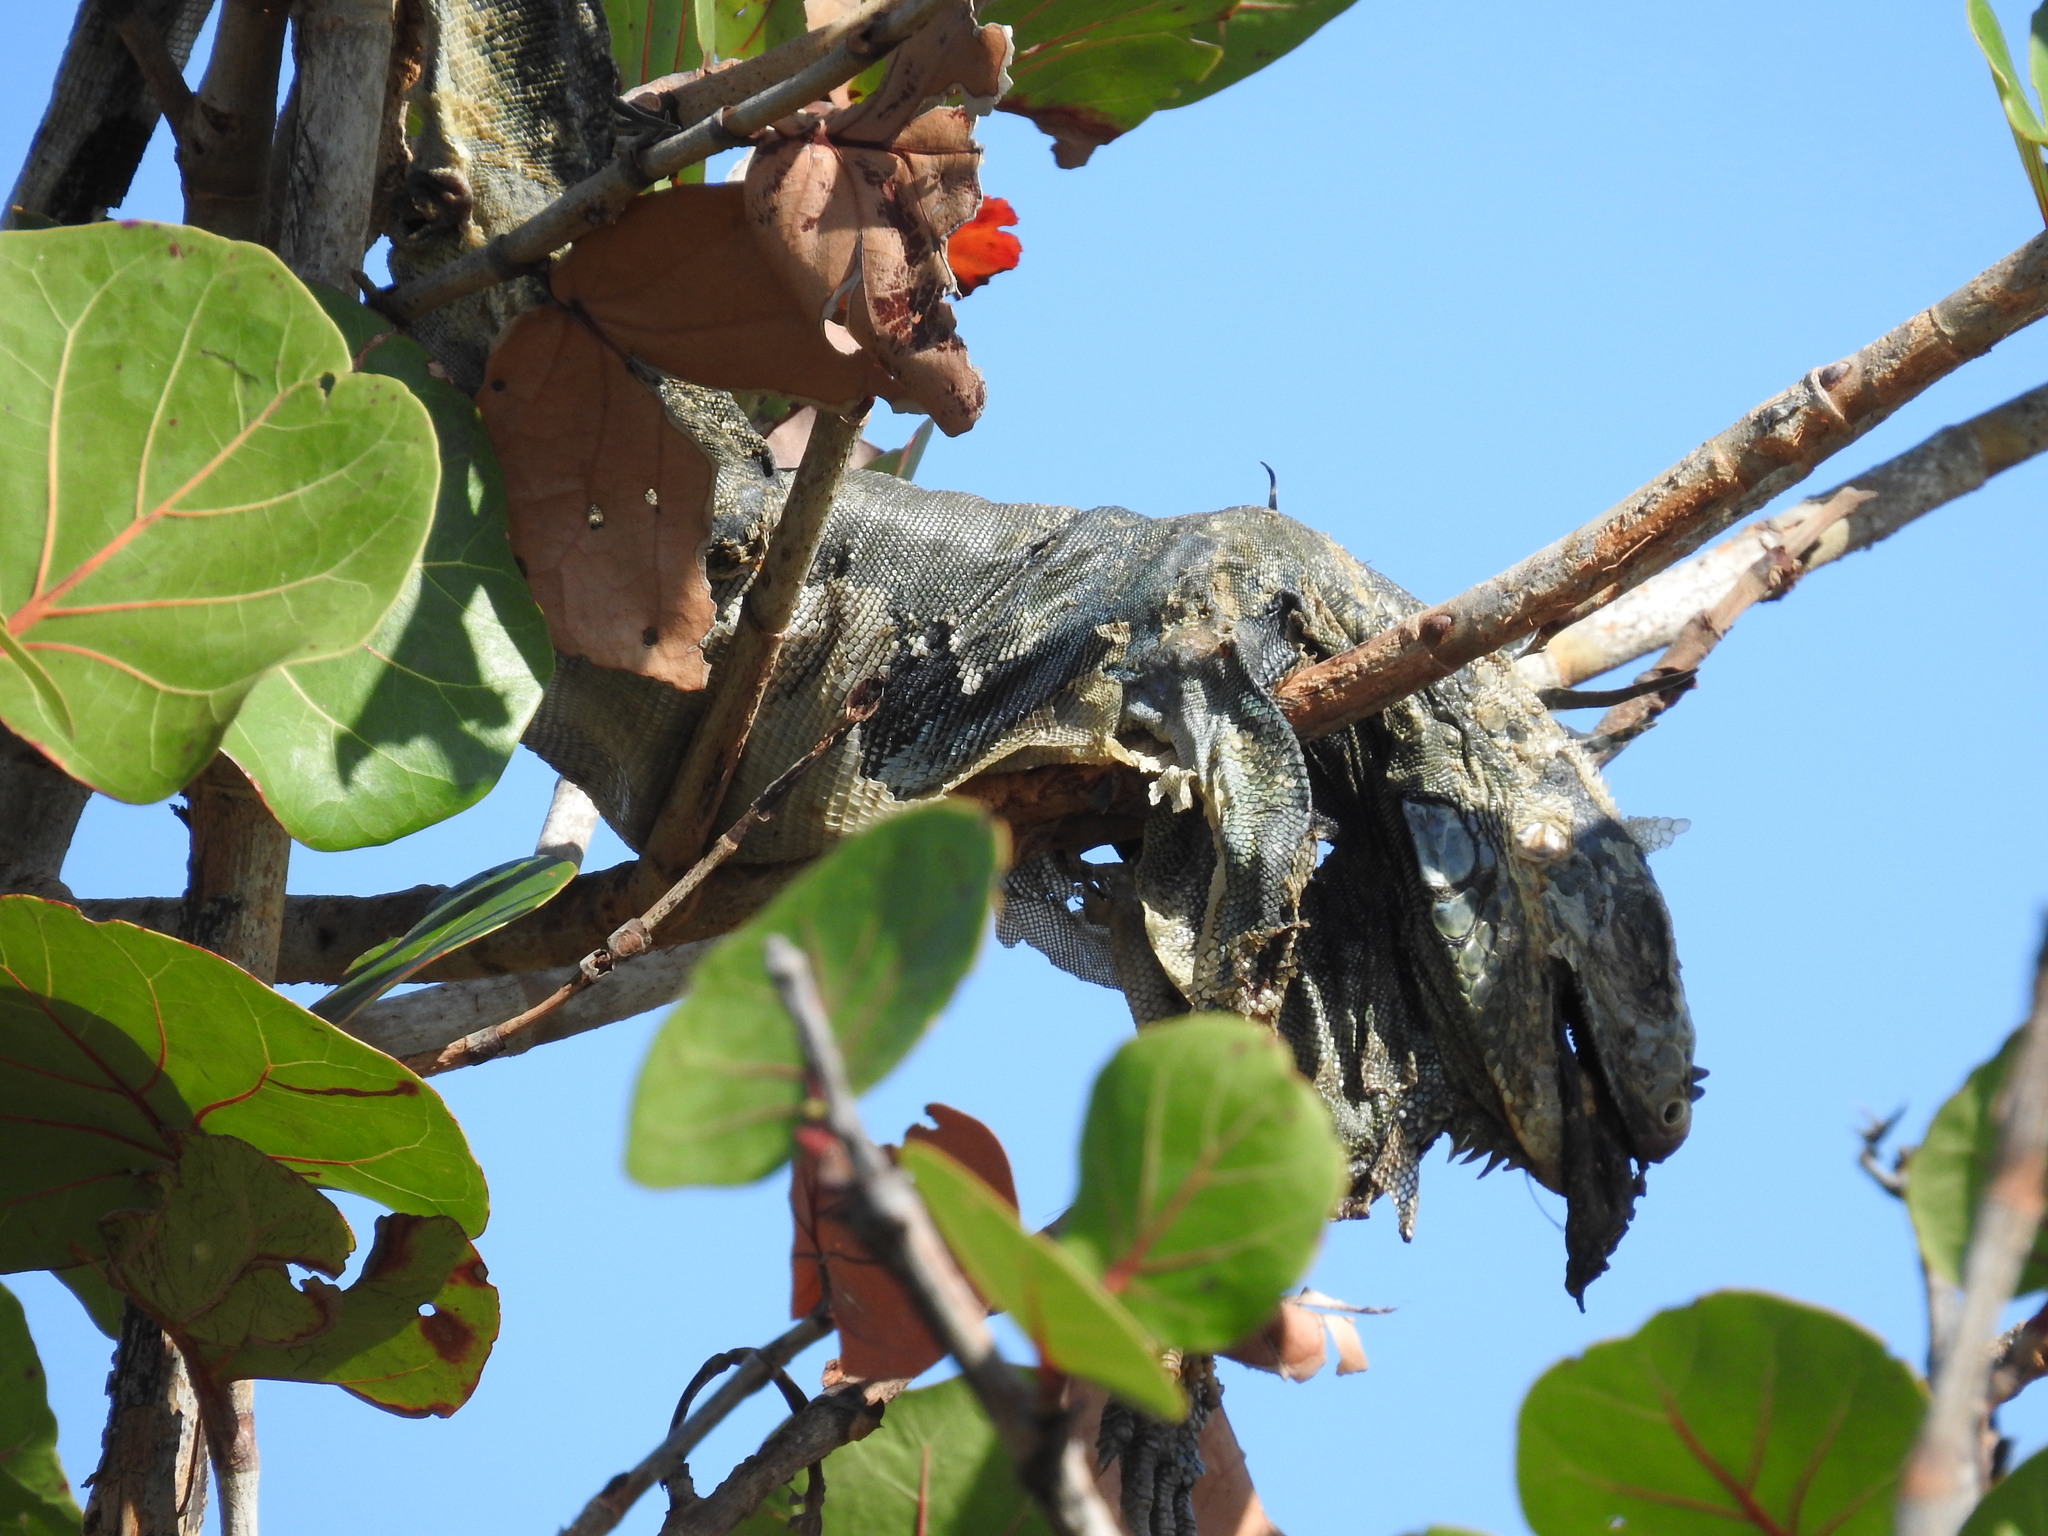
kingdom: Animalia
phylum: Chordata
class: Squamata
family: Iguanidae
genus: Iguana
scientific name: Iguana iguana
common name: Green iguana
